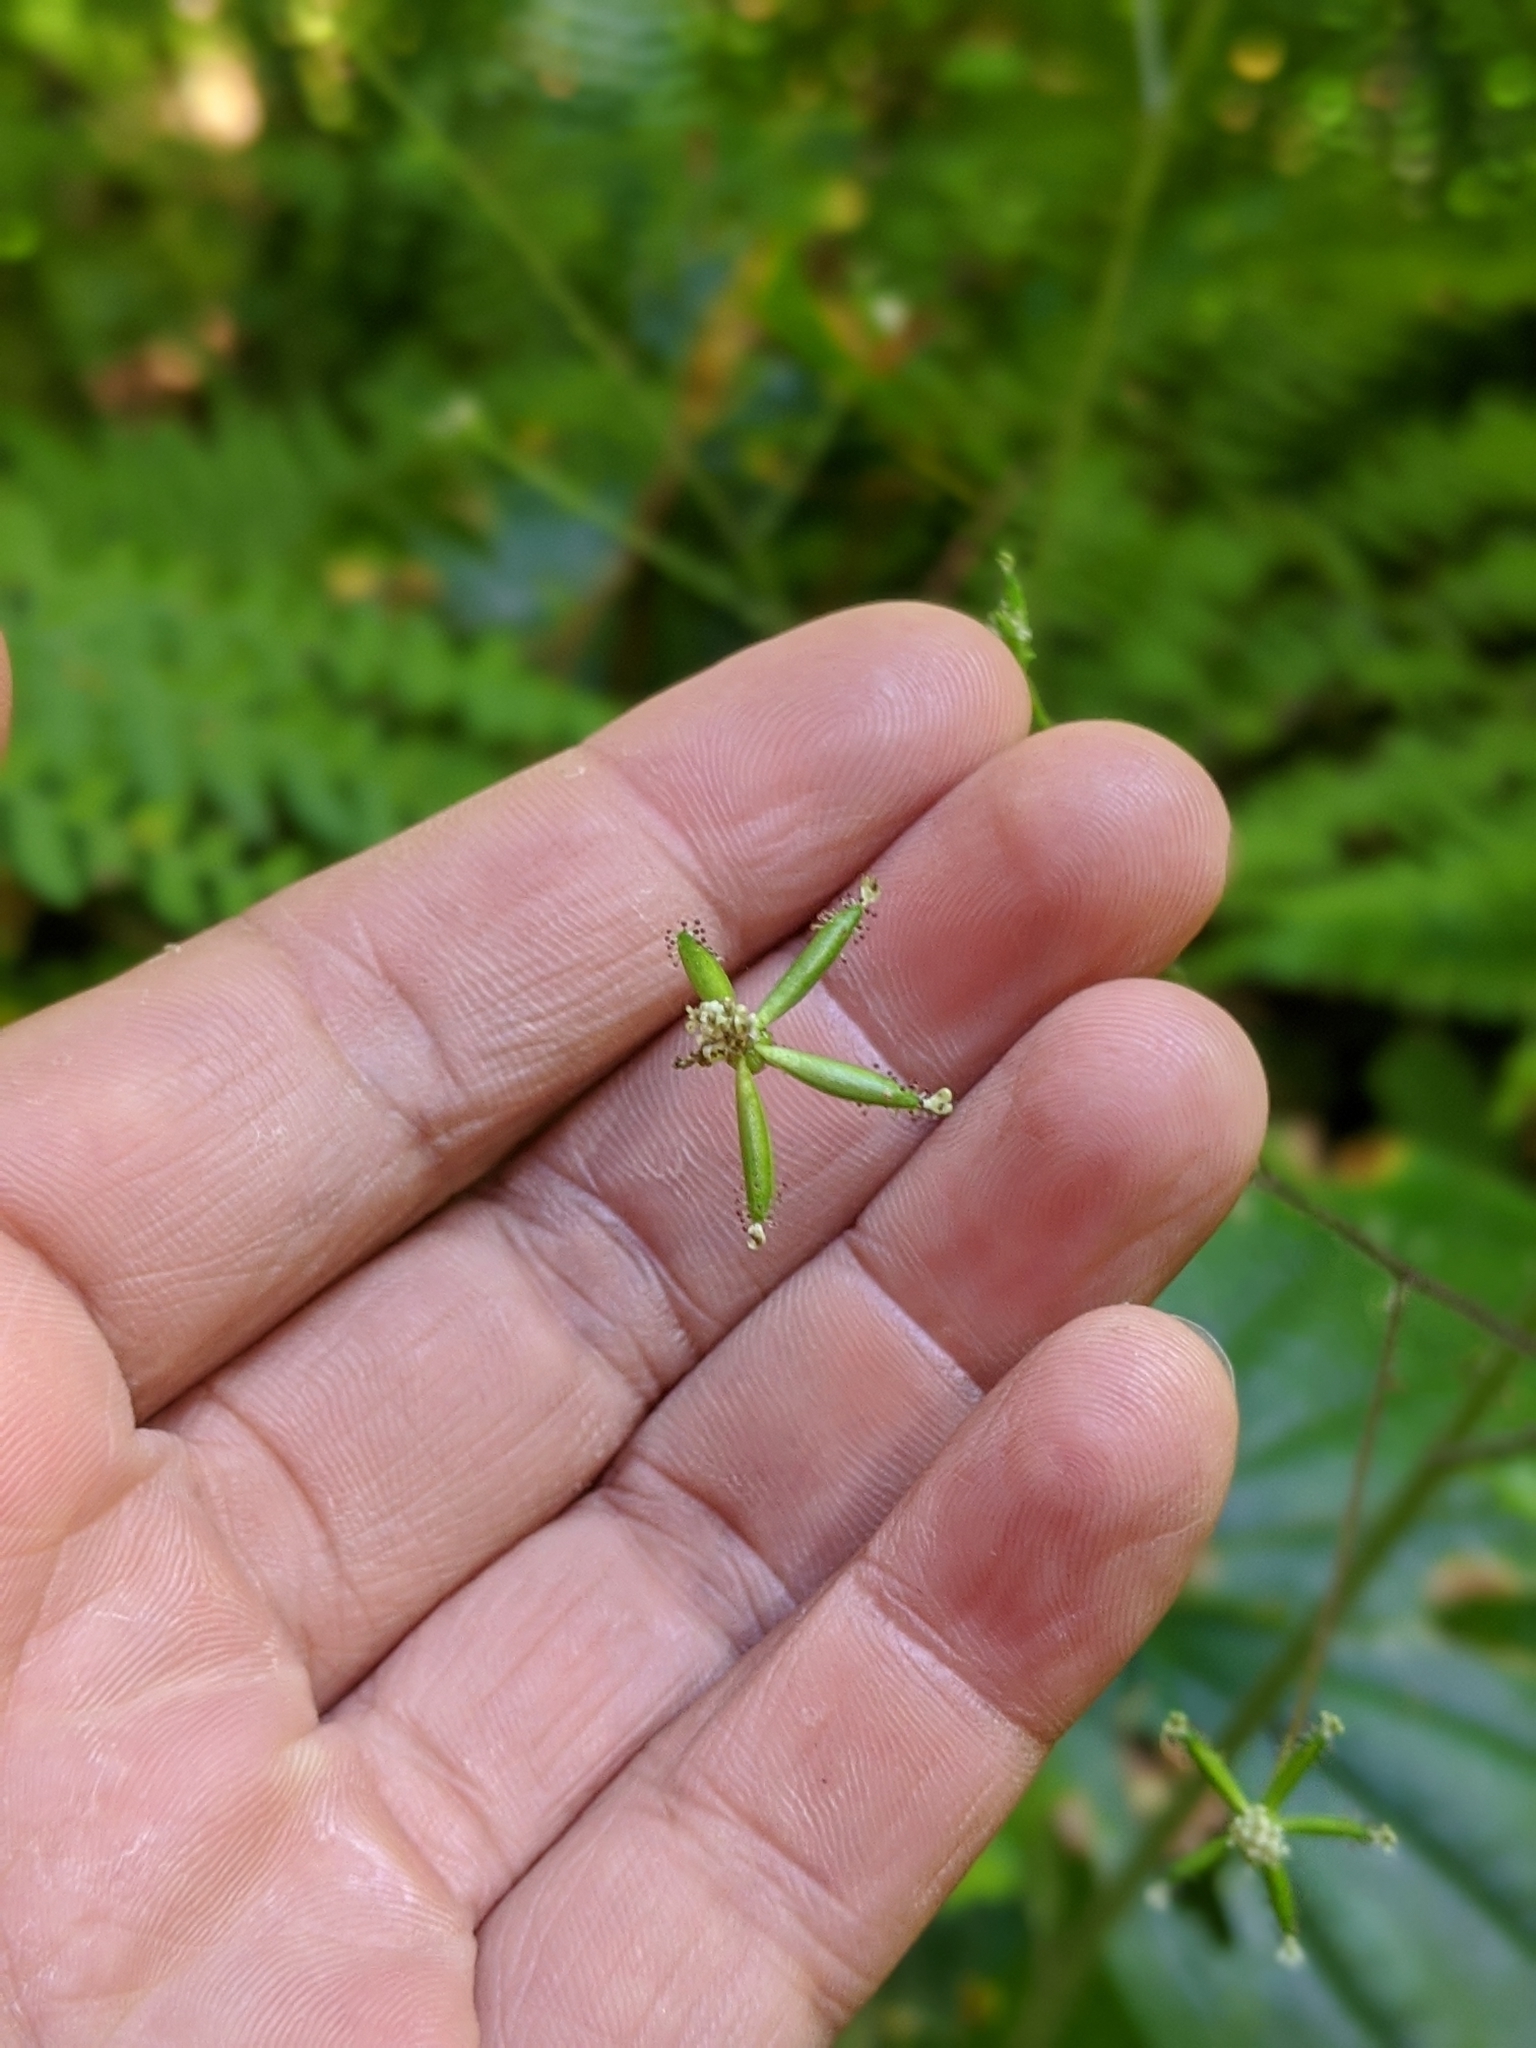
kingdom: Plantae
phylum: Tracheophyta
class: Magnoliopsida
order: Asterales
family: Asteraceae
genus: Adenocaulon
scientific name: Adenocaulon bicolor
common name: Trailplant
